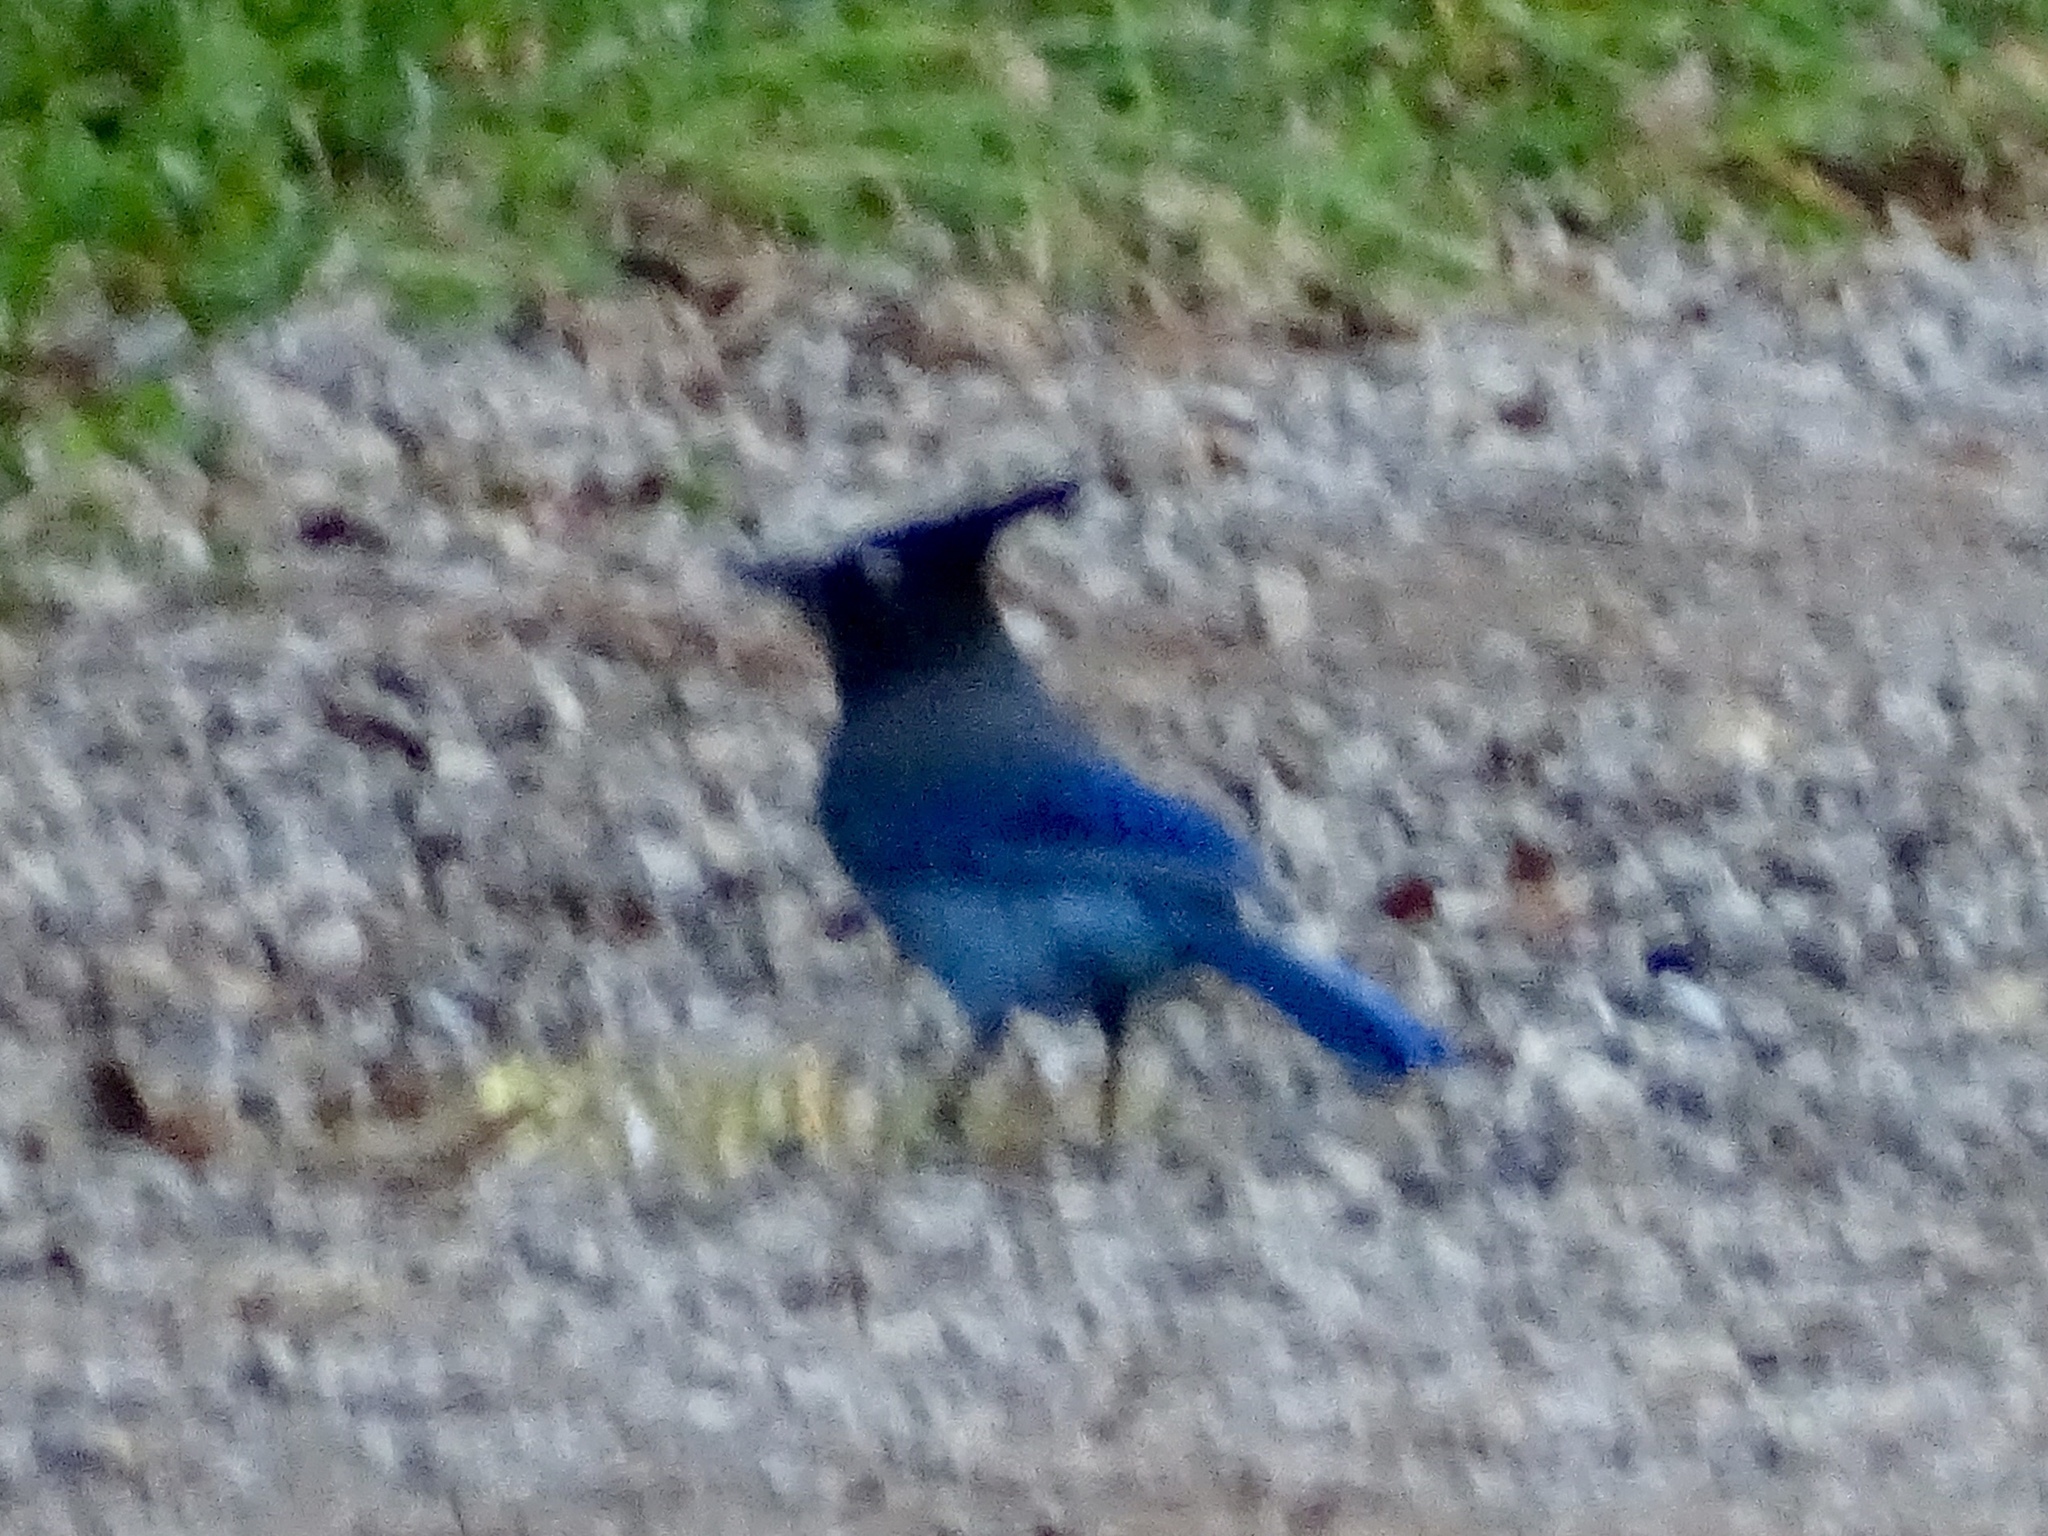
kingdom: Animalia
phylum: Chordata
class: Aves
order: Passeriformes
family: Corvidae
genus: Cyanocitta
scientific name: Cyanocitta stelleri
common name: Steller's jay
